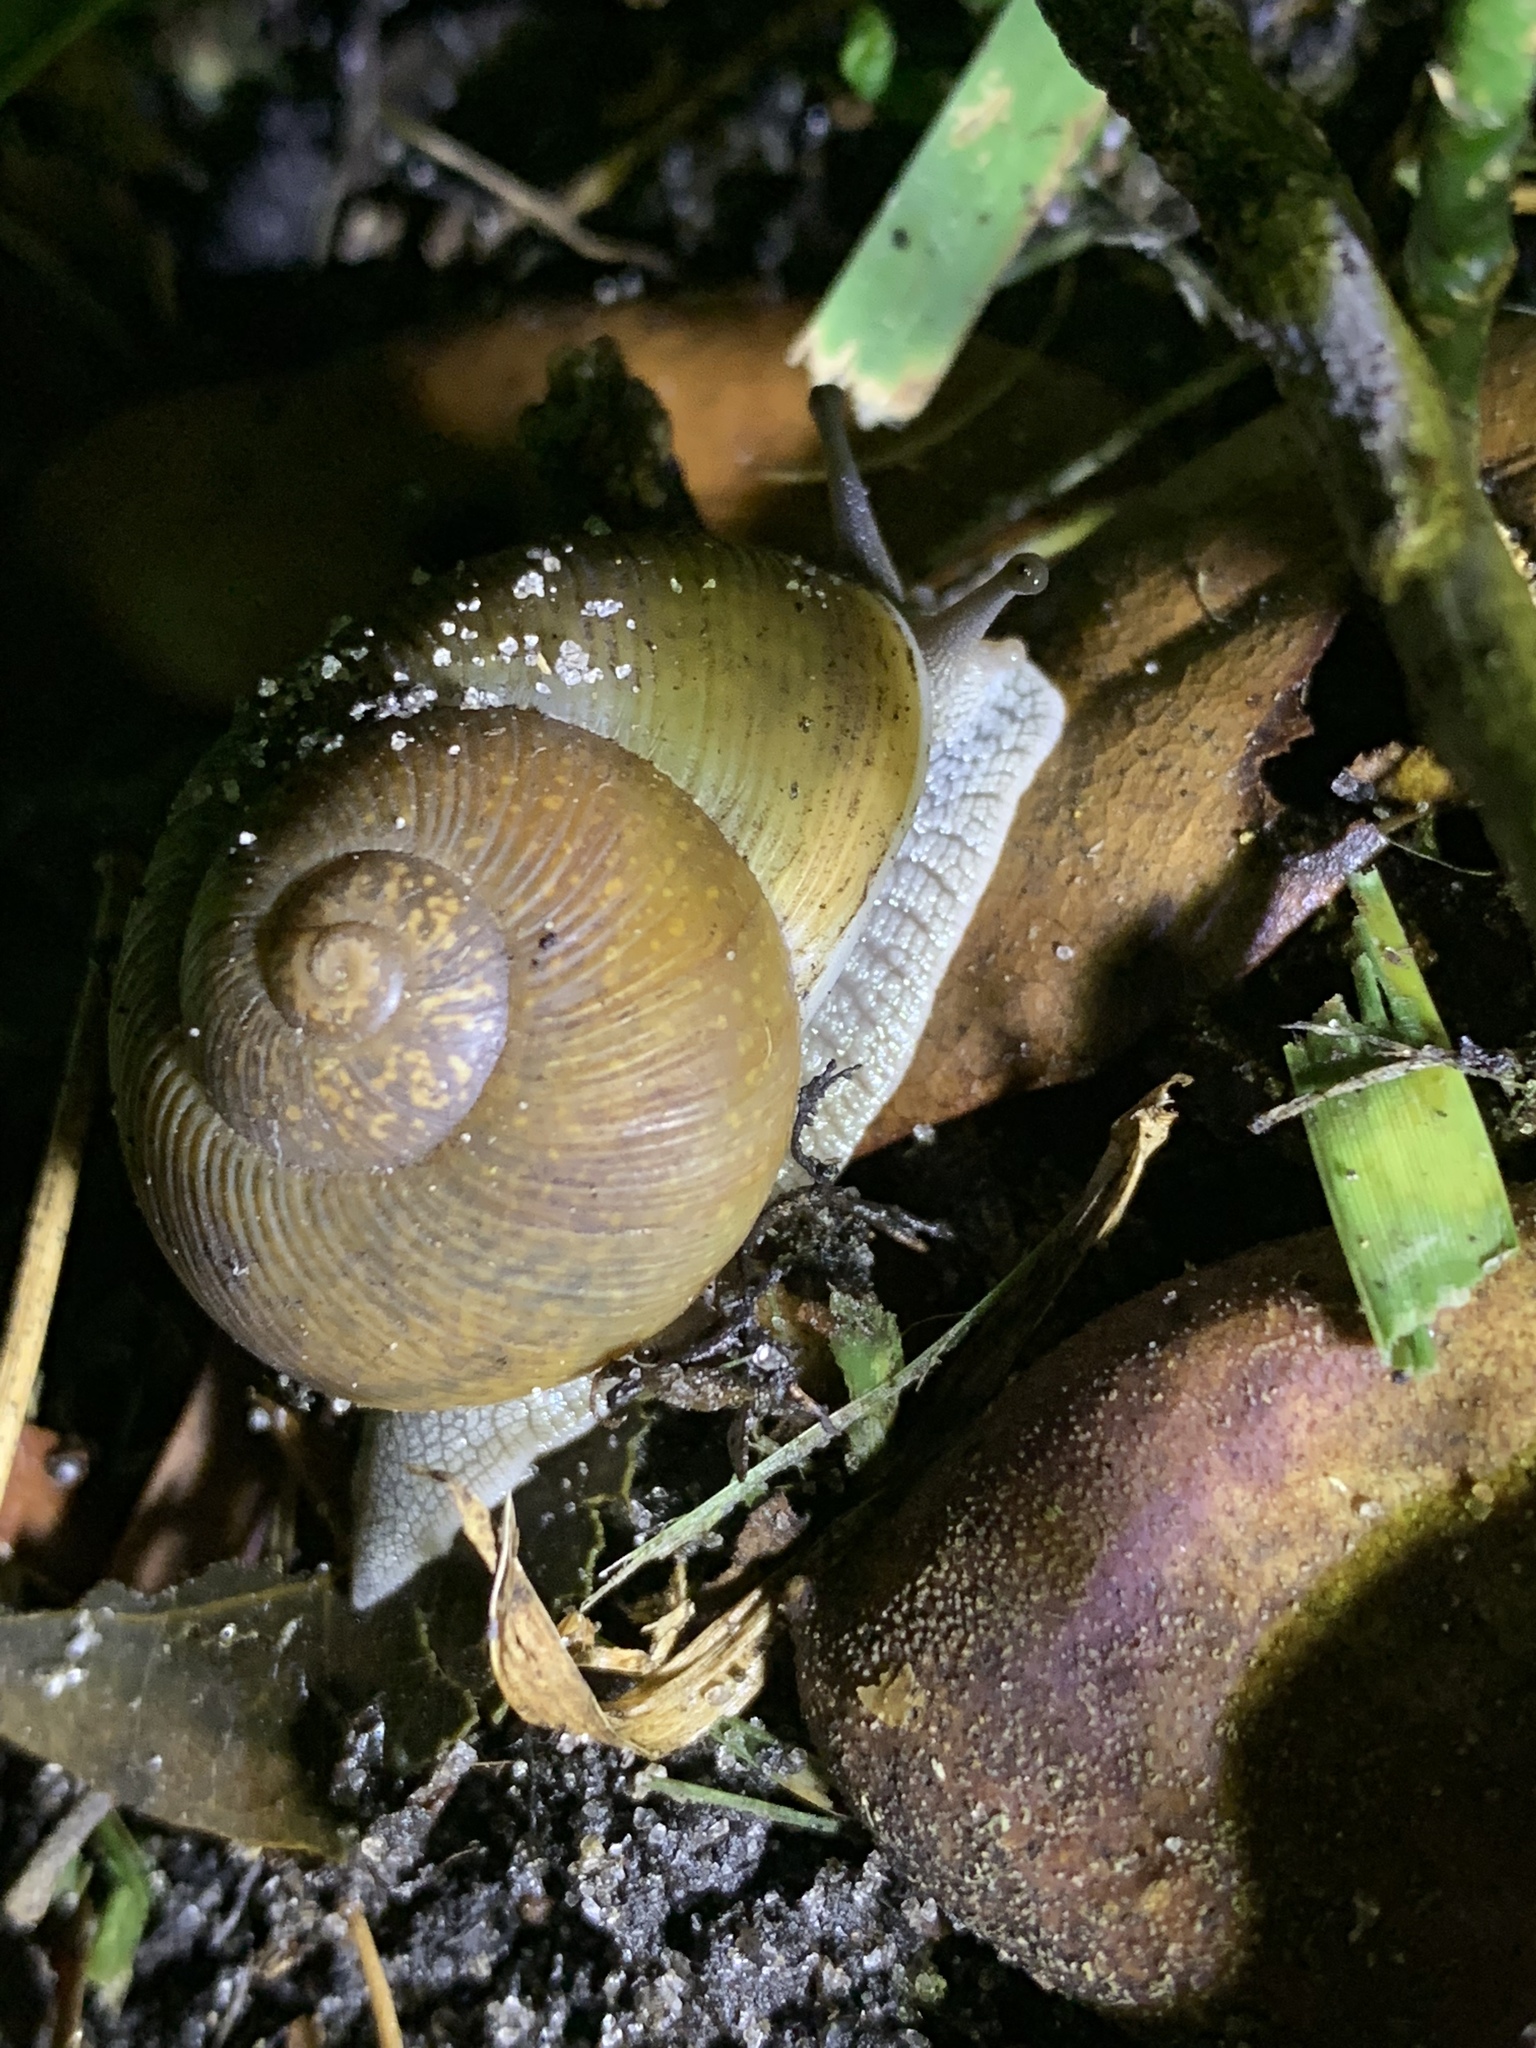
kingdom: Animalia
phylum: Mollusca
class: Gastropoda
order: Stylommatophora
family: Zachrysiidae
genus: Zachrysia
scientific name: Zachrysia provisoria
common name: Garden zachrysia
